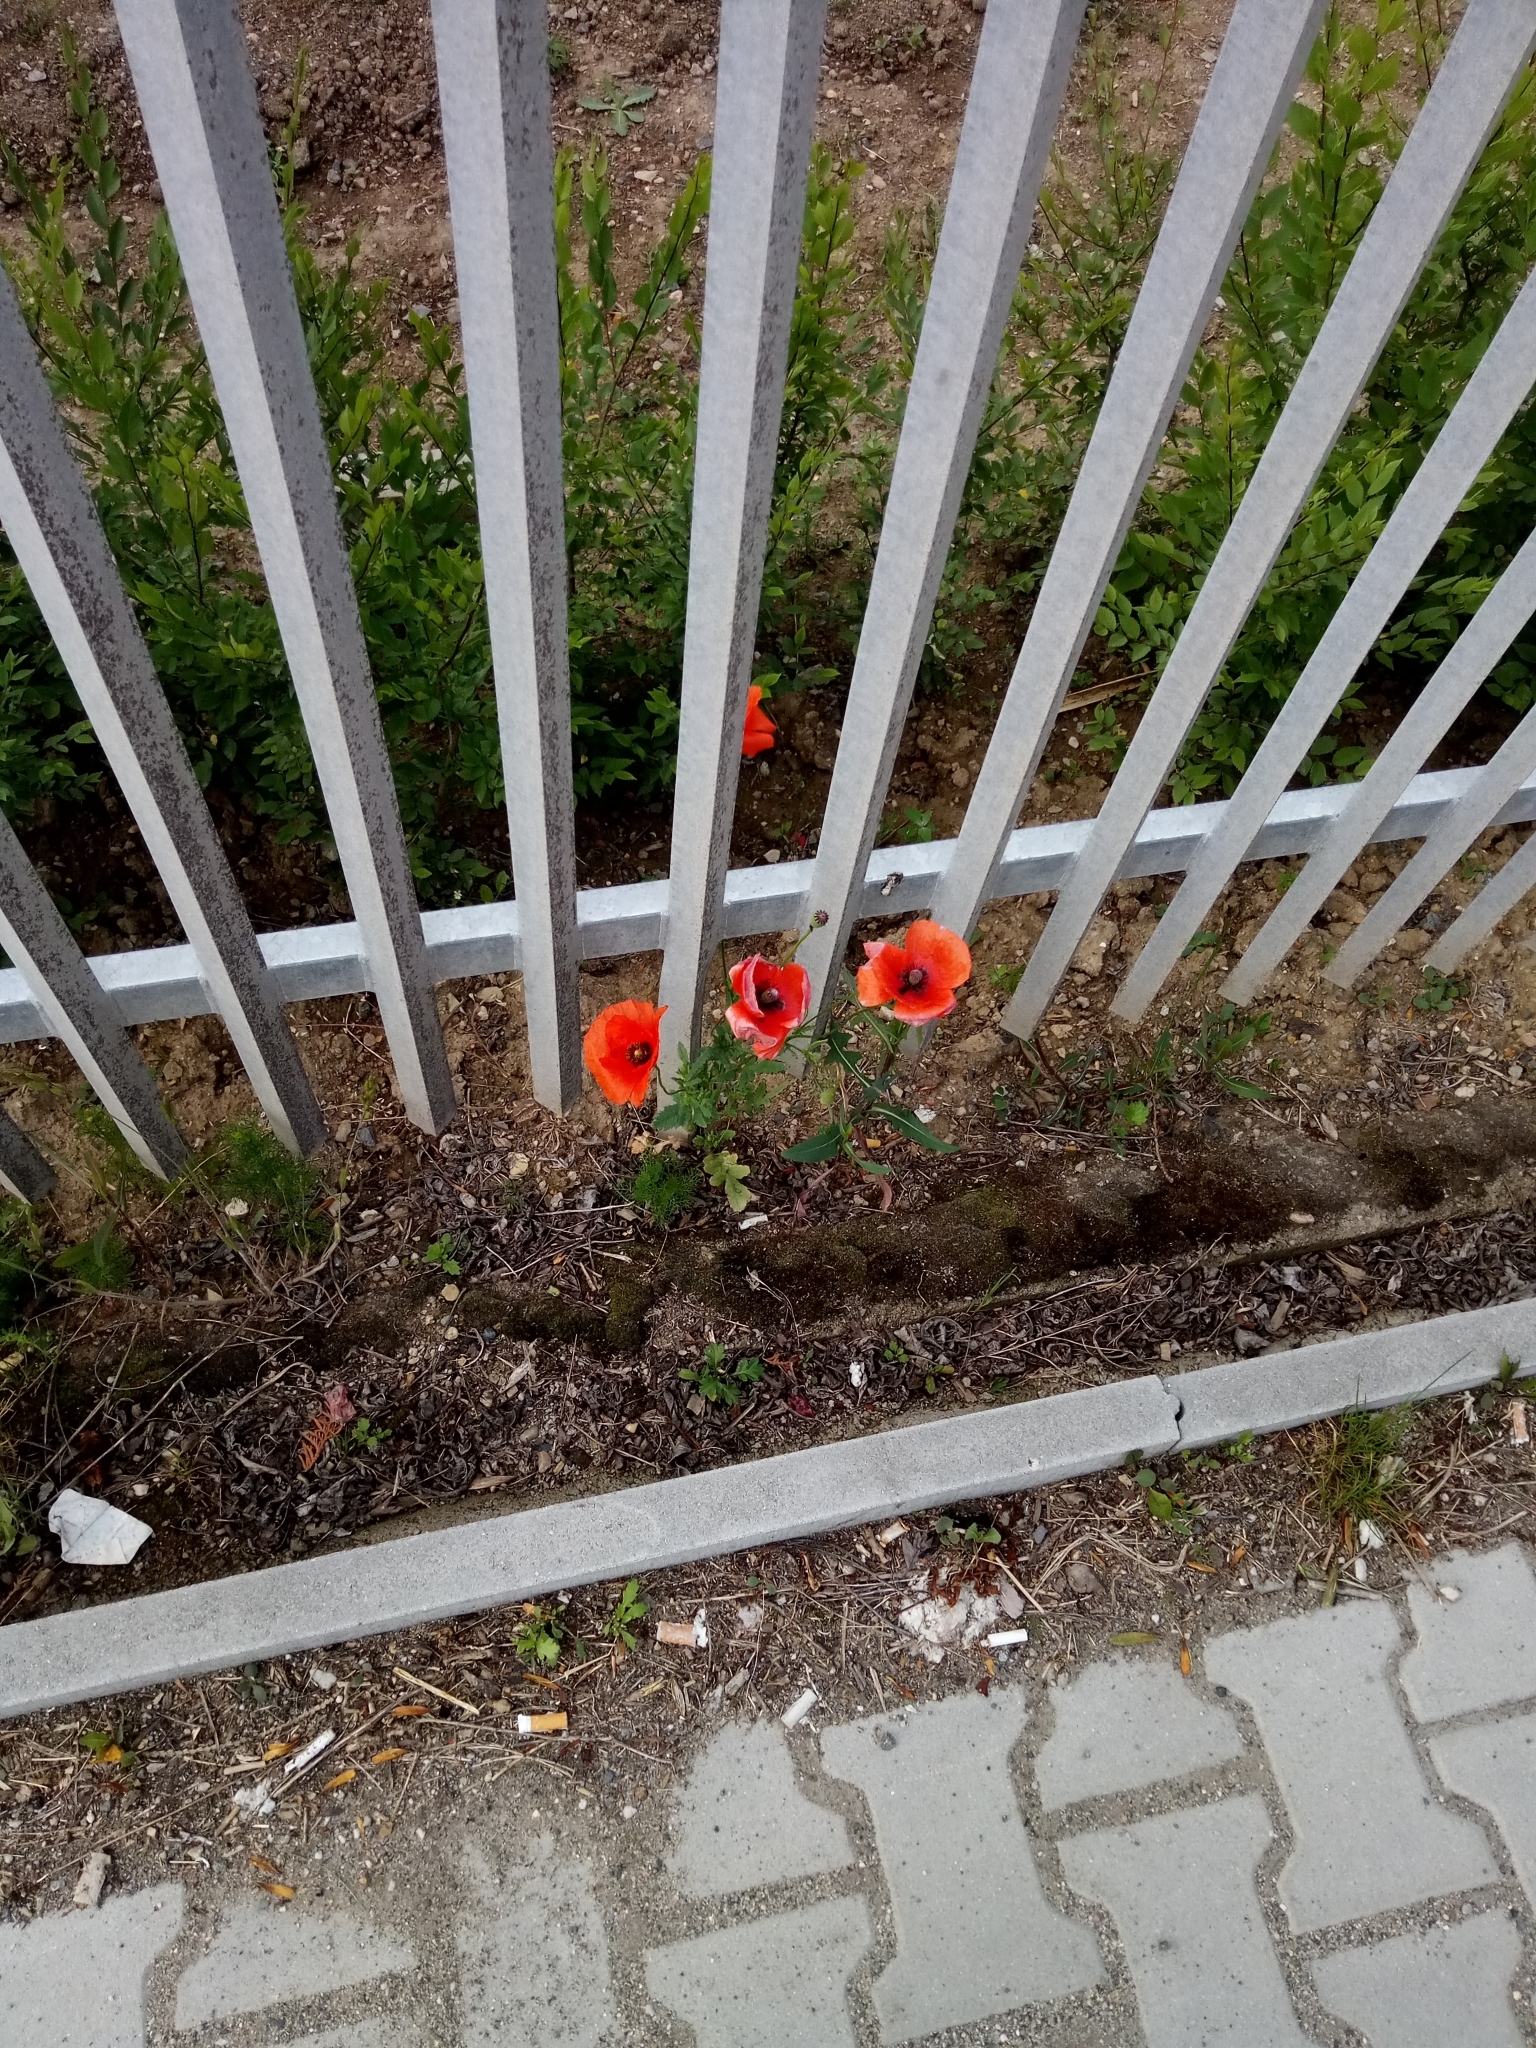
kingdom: Plantae
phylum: Tracheophyta
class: Magnoliopsida
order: Ranunculales
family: Papaveraceae
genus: Papaver
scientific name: Papaver rhoeas
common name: Corn poppy
